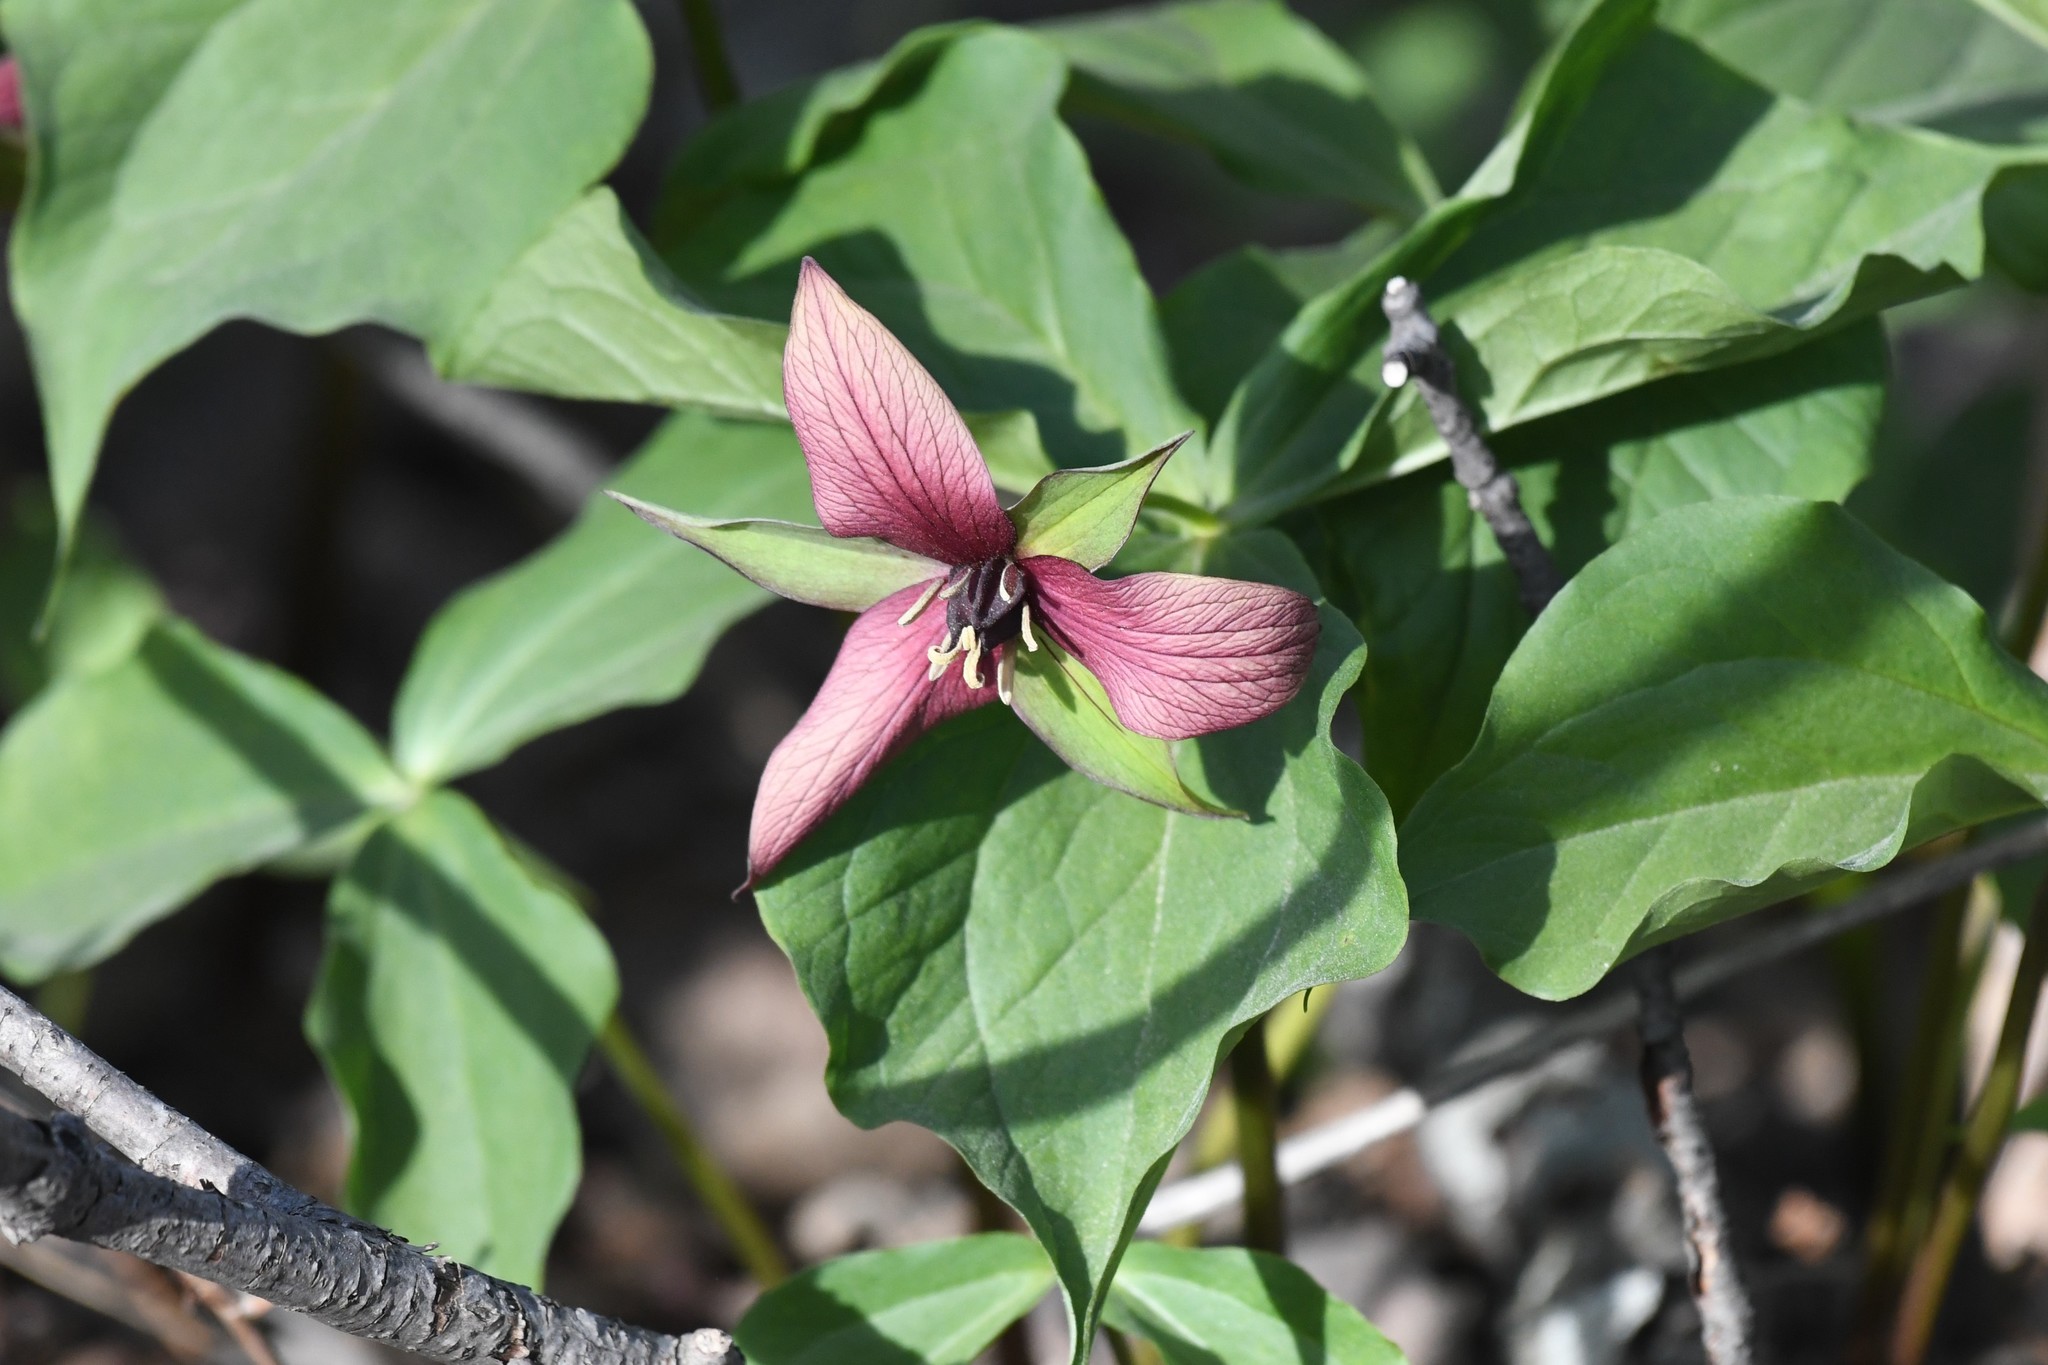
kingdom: Plantae
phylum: Tracheophyta
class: Liliopsida
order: Liliales
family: Melanthiaceae
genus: Trillium
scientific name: Trillium erectum
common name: Purple trillium
